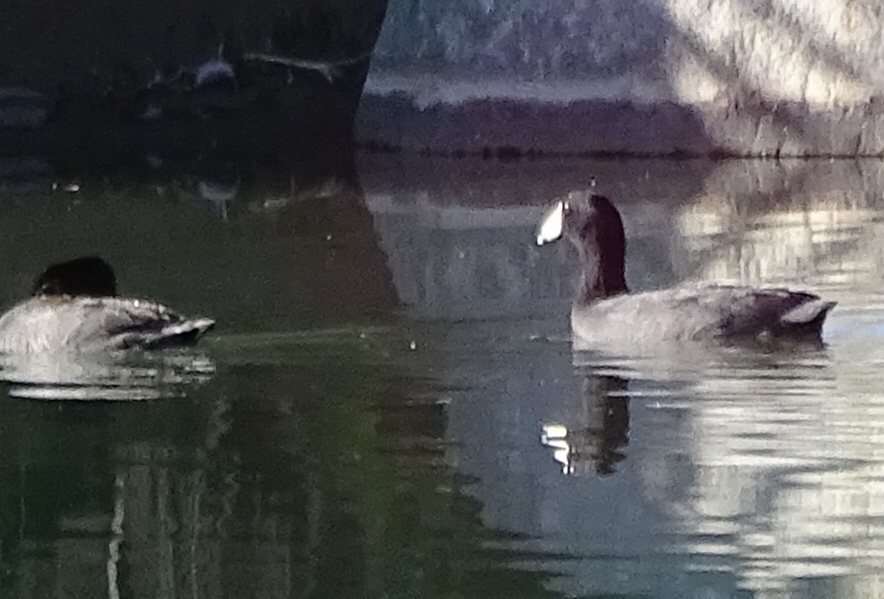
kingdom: Animalia
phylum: Chordata
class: Aves
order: Gruiformes
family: Rallidae
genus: Fulica
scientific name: Fulica americana
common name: American coot
